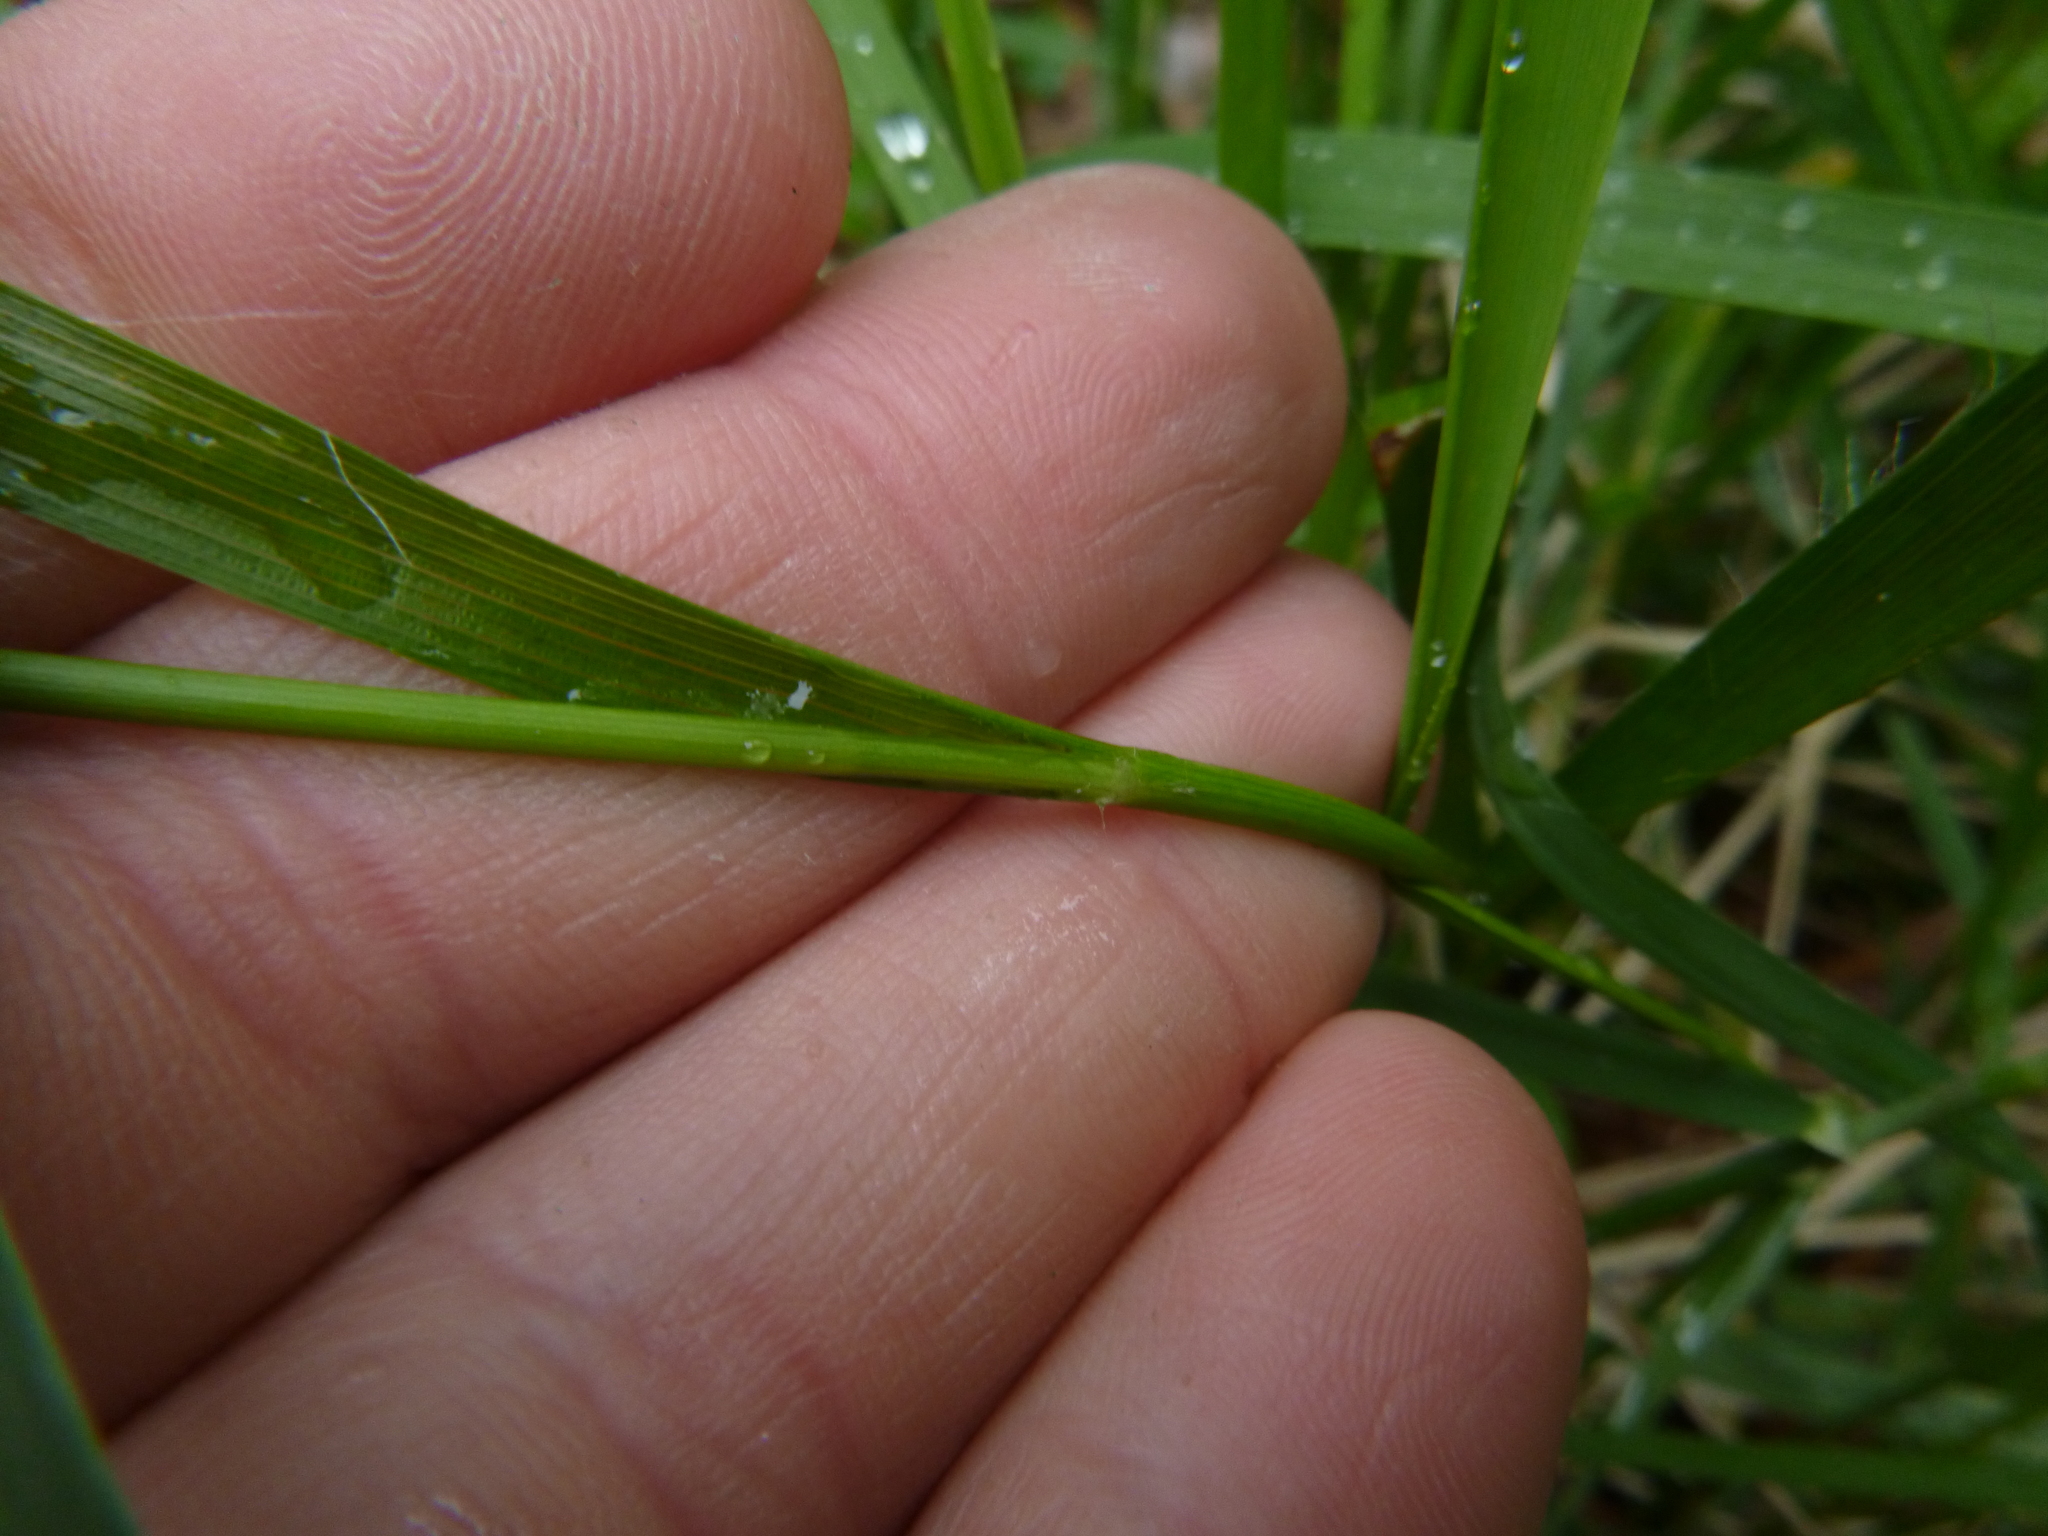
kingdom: Plantae
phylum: Tracheophyta
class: Liliopsida
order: Poales
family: Juncaceae
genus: Luzula
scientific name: Luzula luzuloides
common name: White wood-rush
